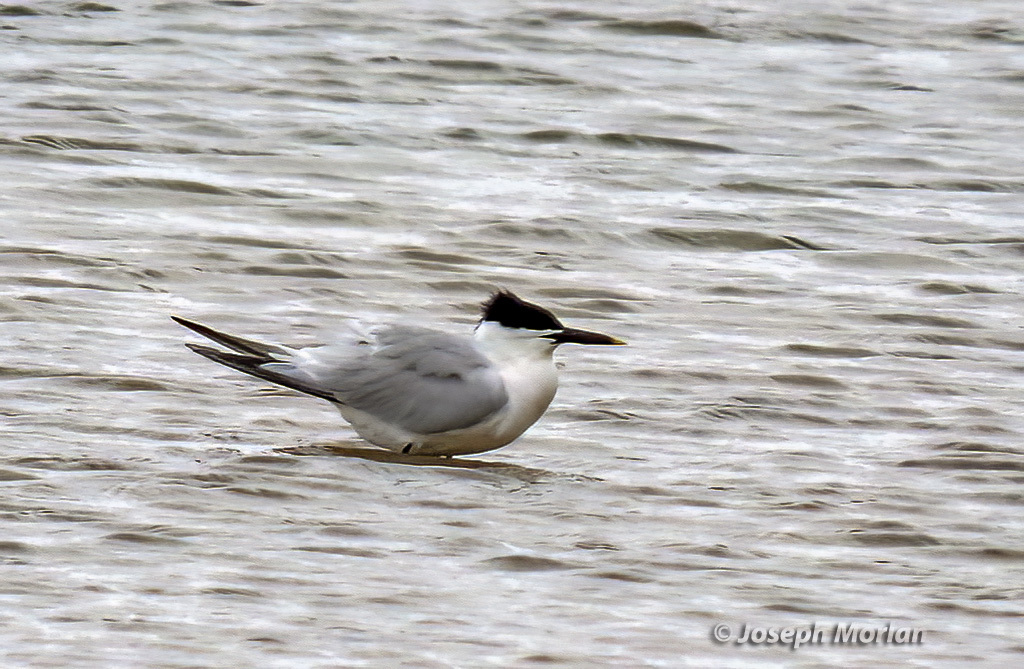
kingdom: Animalia
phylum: Chordata
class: Aves
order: Charadriiformes
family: Laridae
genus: Thalasseus
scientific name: Thalasseus sandvicensis
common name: Sandwich tern
